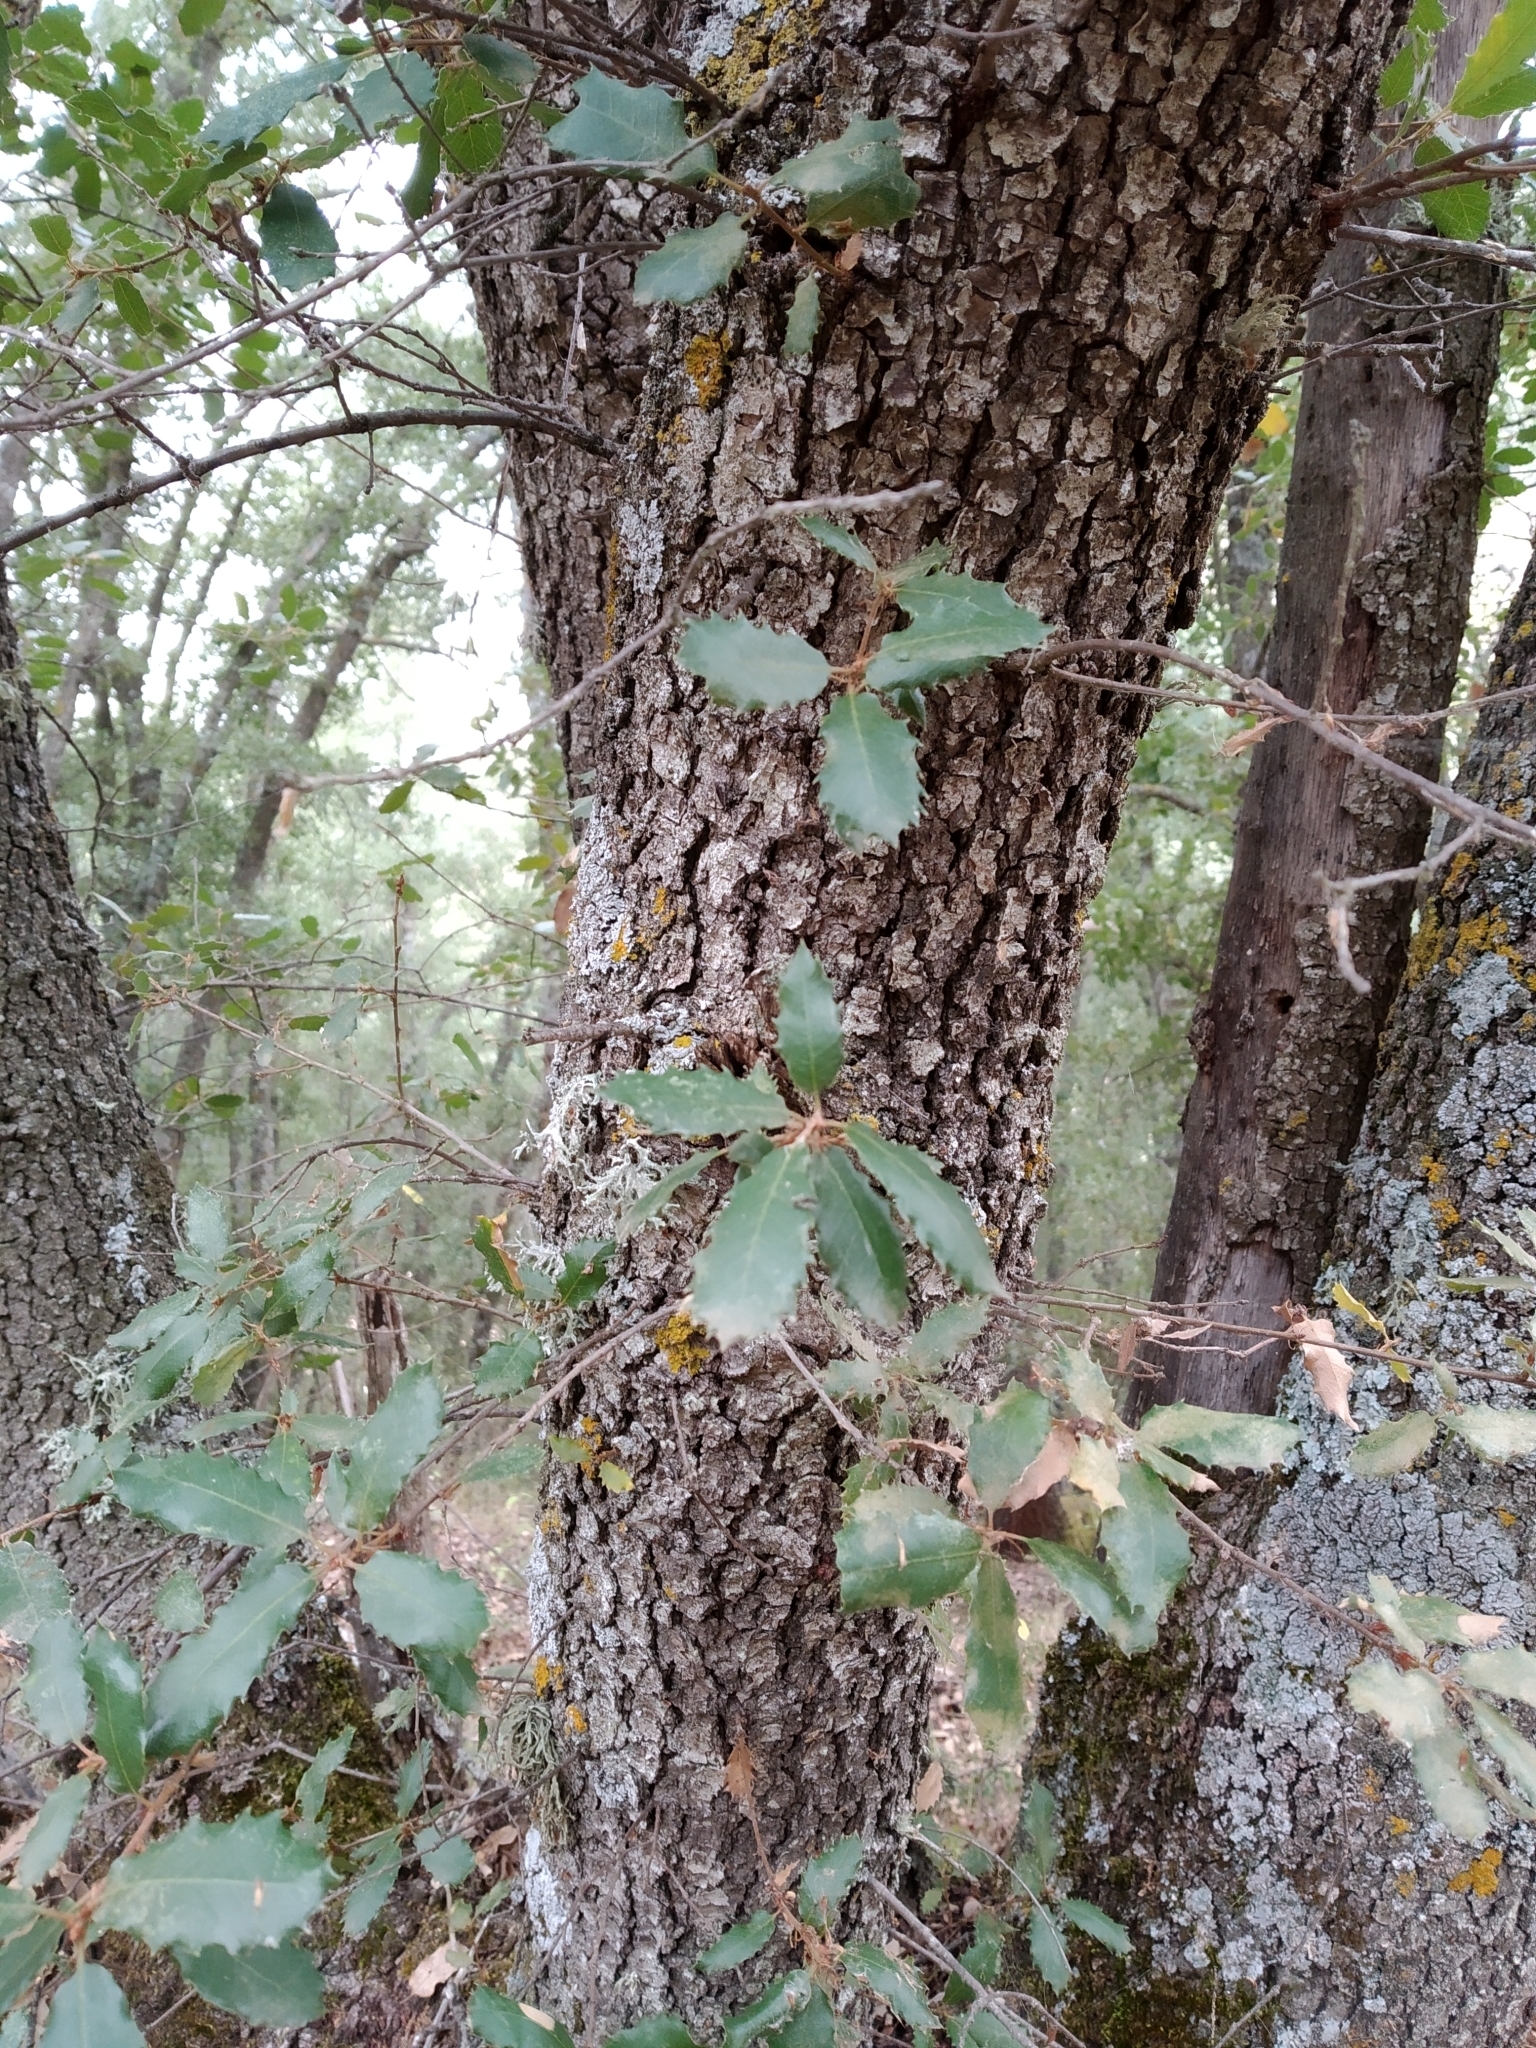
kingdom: Plantae
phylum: Tracheophyta
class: Magnoliopsida
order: Fagales
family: Fagaceae
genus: Quercus
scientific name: Quercus faginea
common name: Gall oak tree
